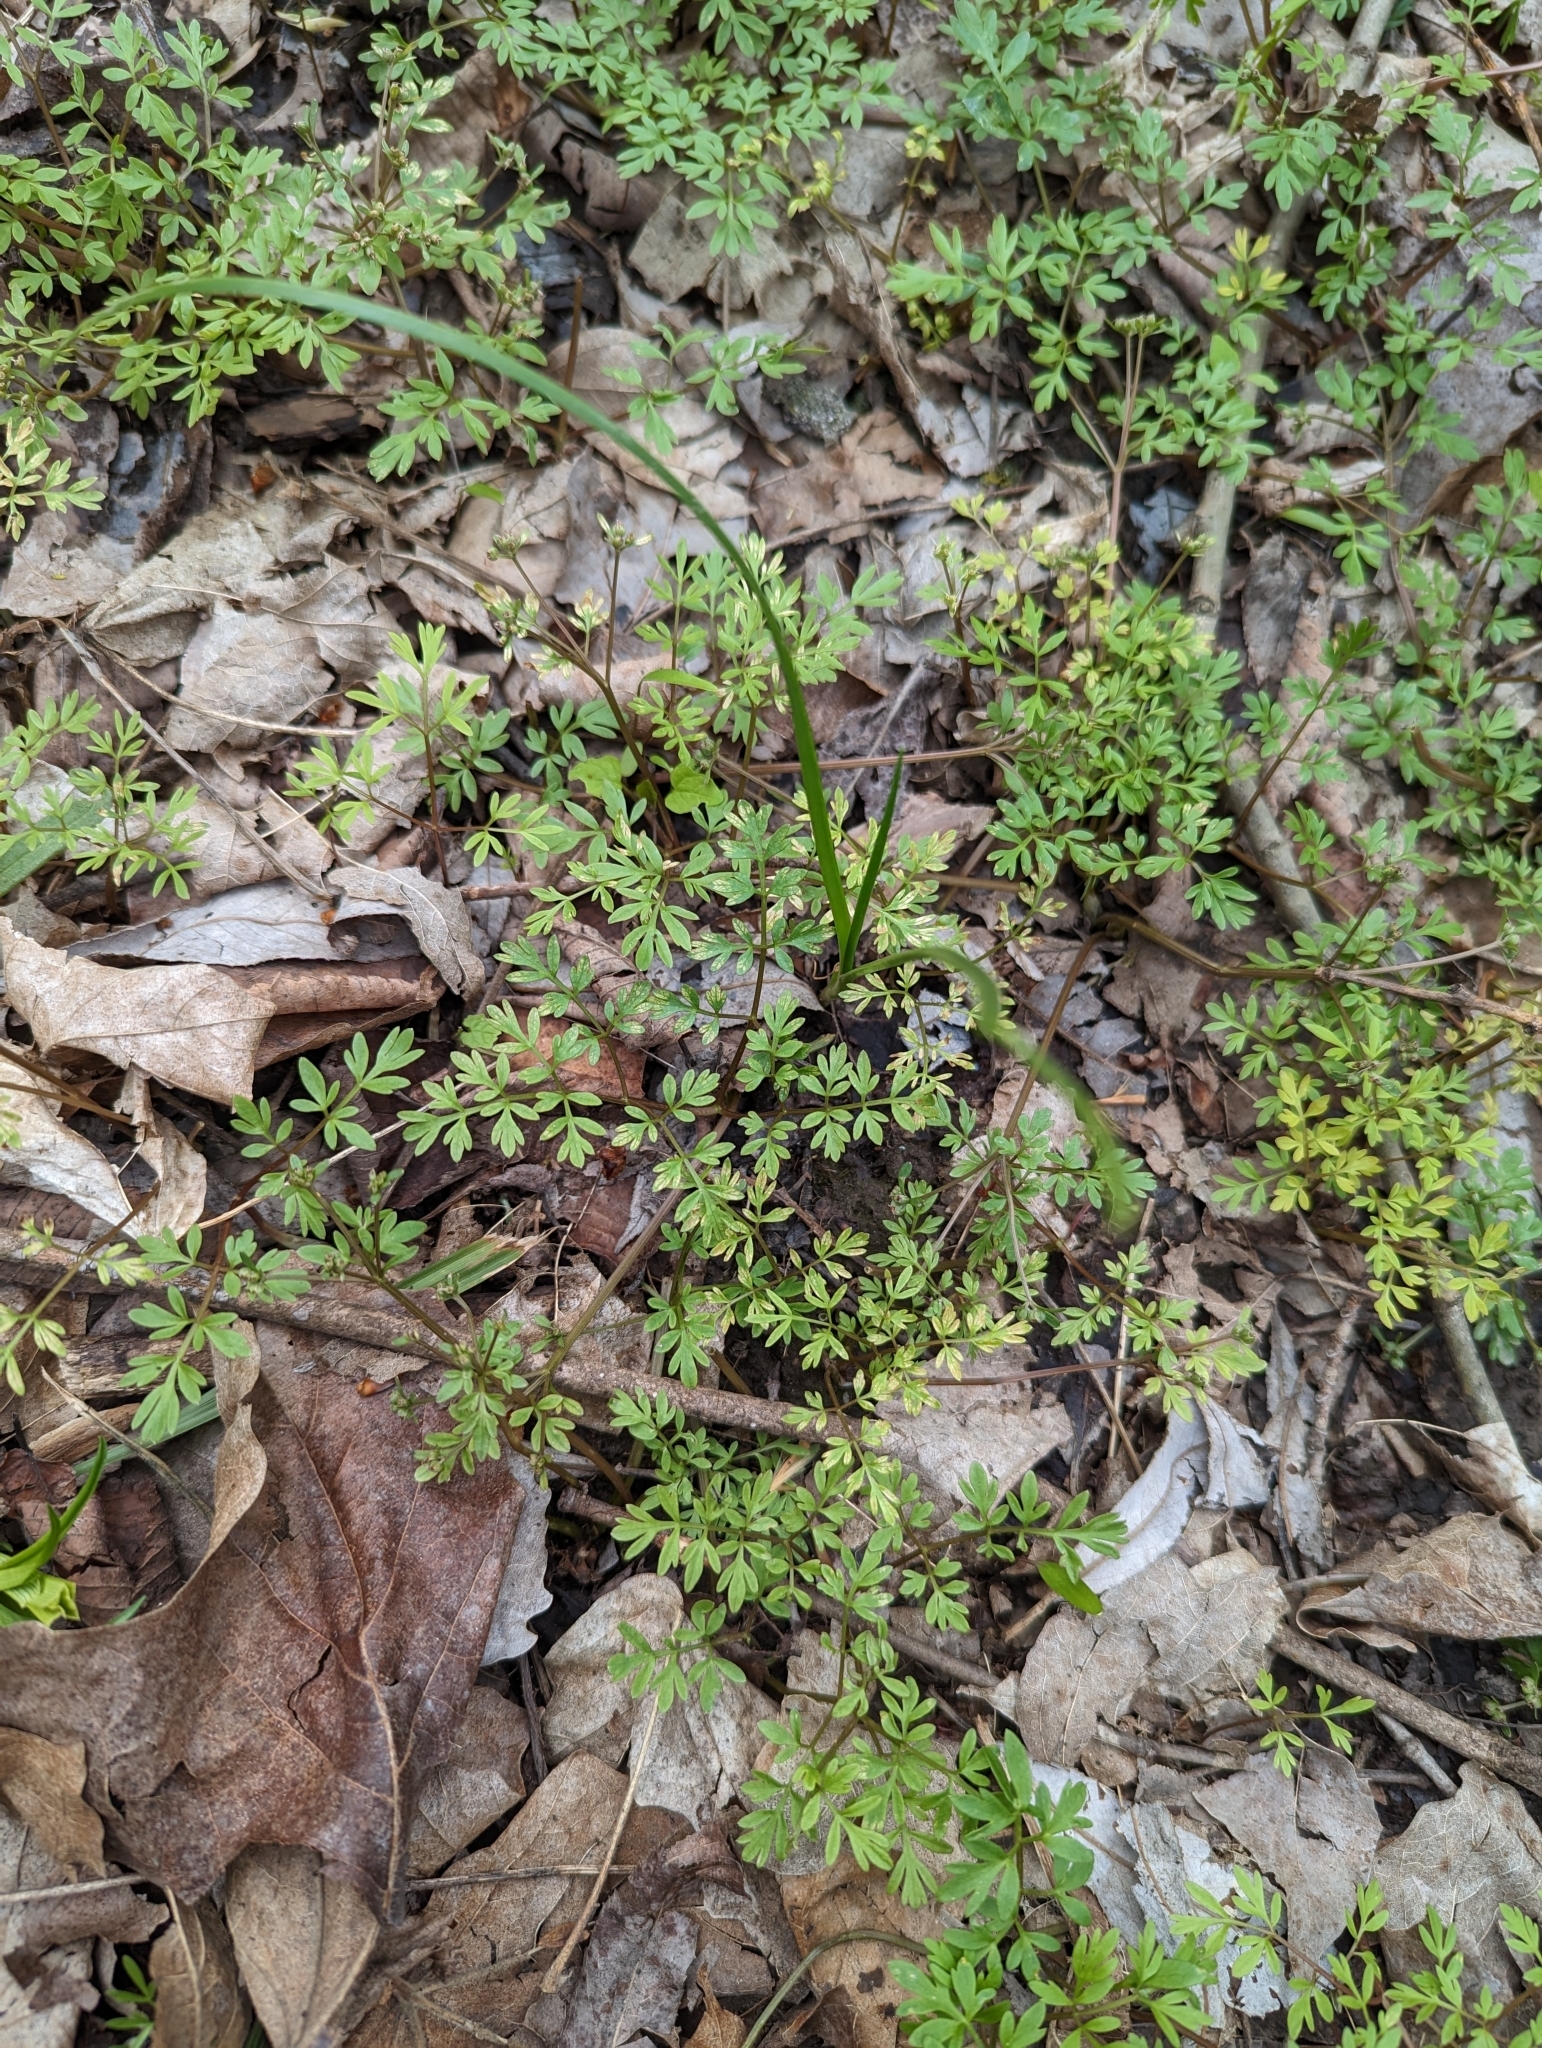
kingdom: Plantae
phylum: Tracheophyta
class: Magnoliopsida
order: Apiales
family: Apiaceae
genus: Erigenia
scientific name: Erigenia bulbosa
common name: Pepper-and-salt
